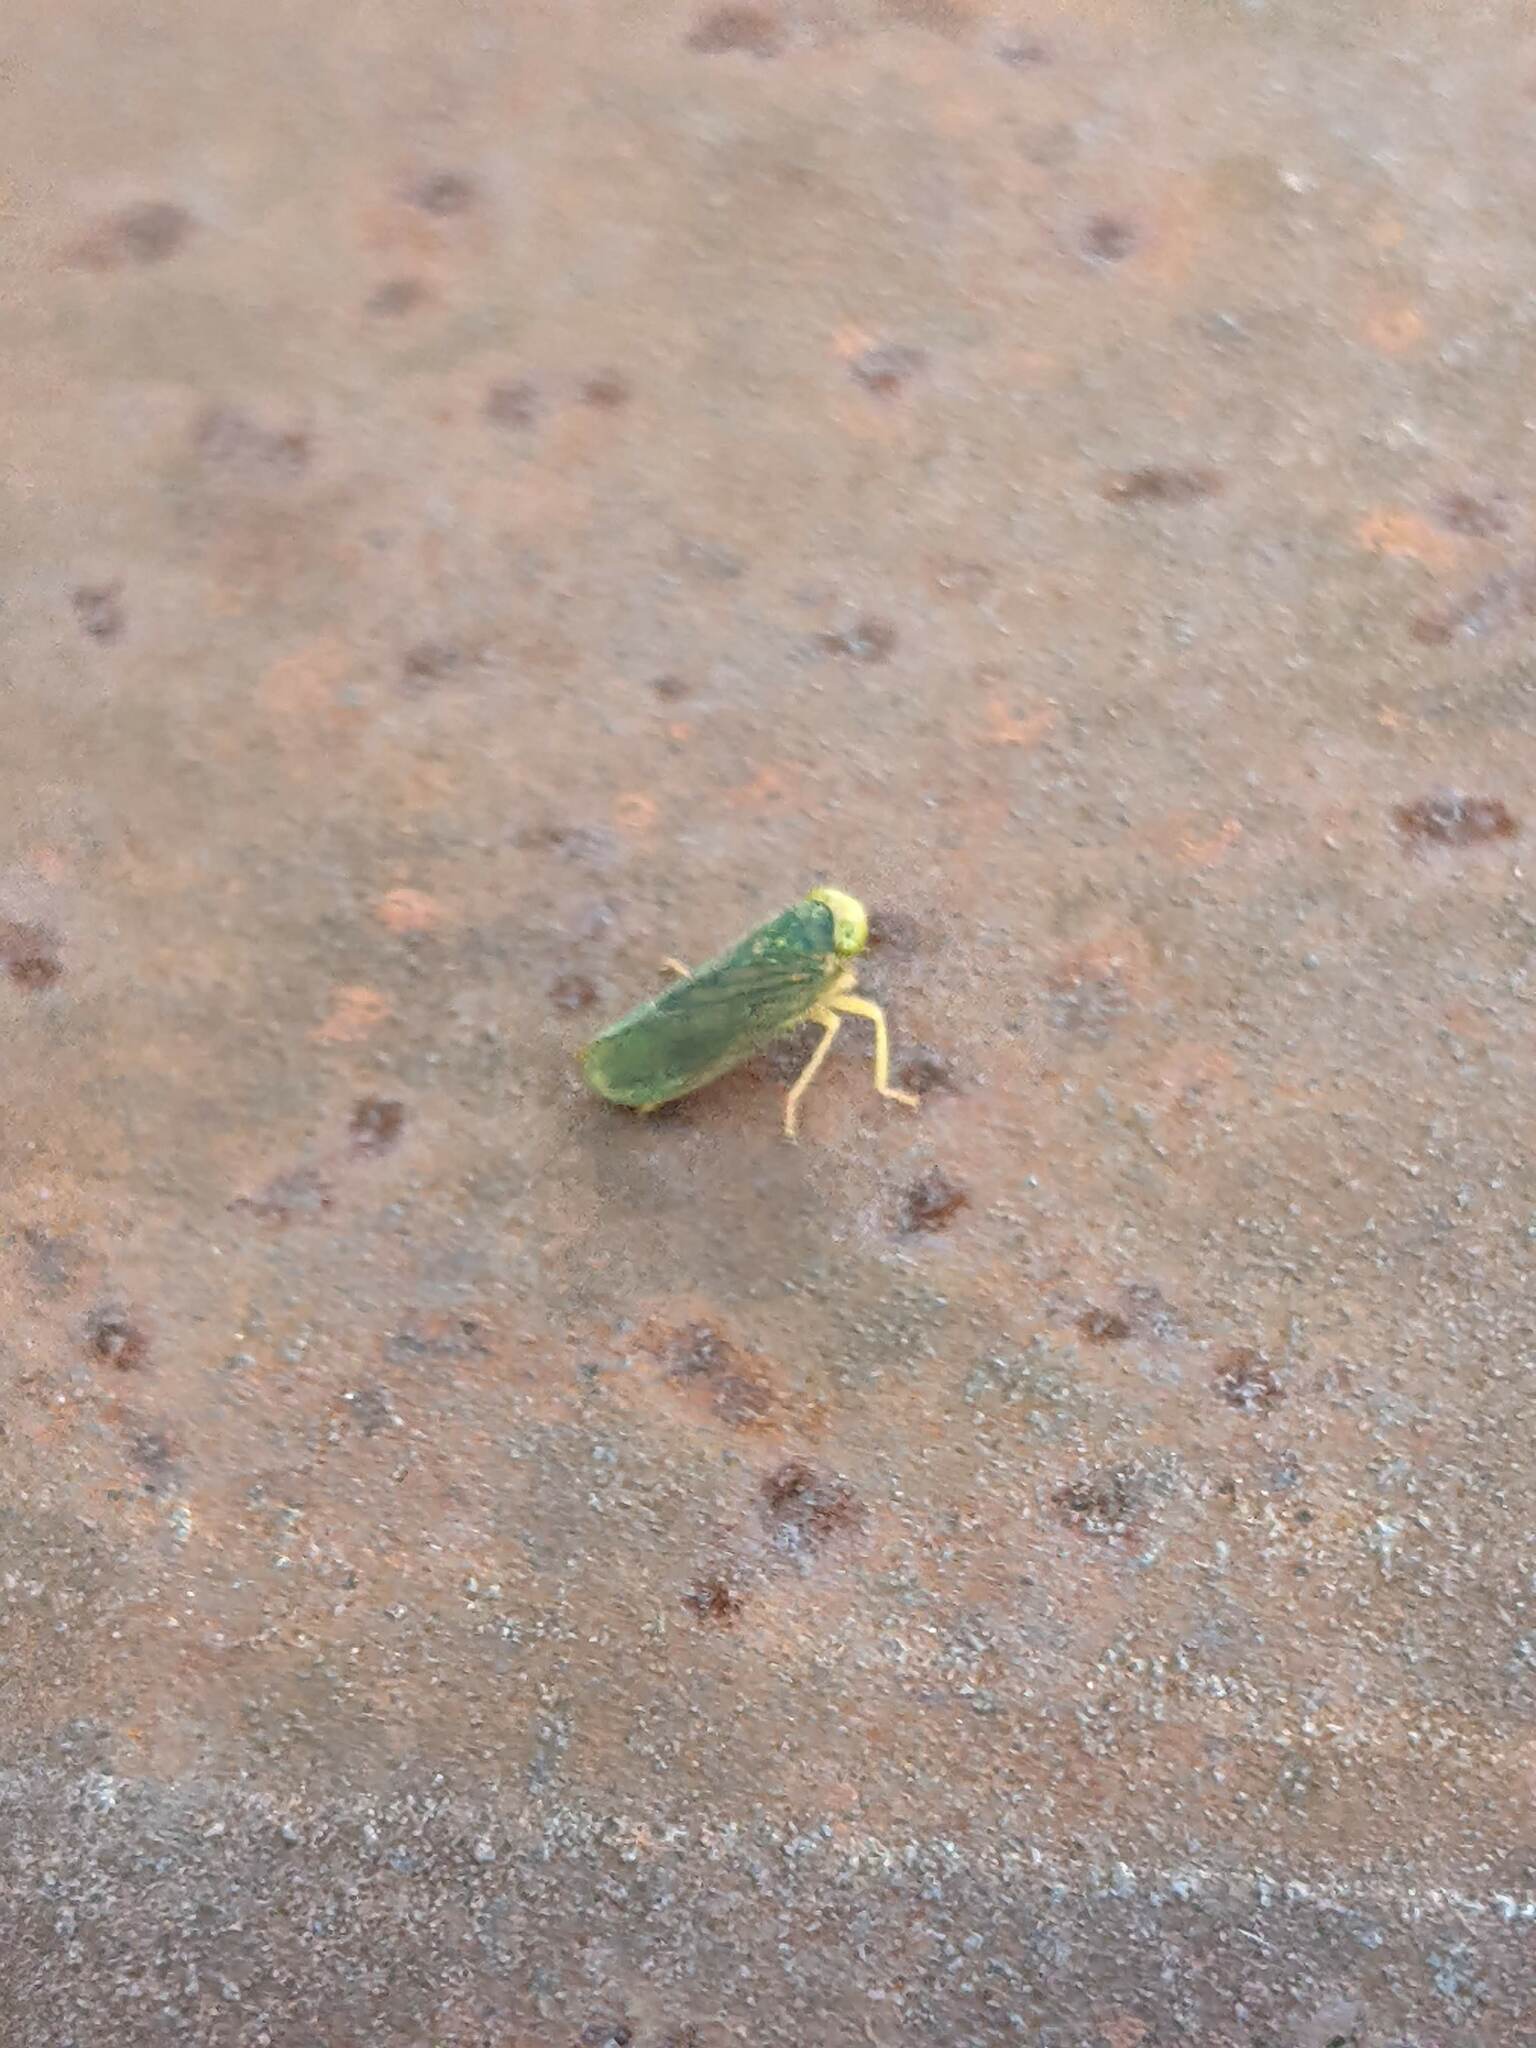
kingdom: Animalia
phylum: Arthropoda
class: Insecta
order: Hemiptera
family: Cicadellidae
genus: Jikradia
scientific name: Jikradia olitoria
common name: Coppery leafhopper
